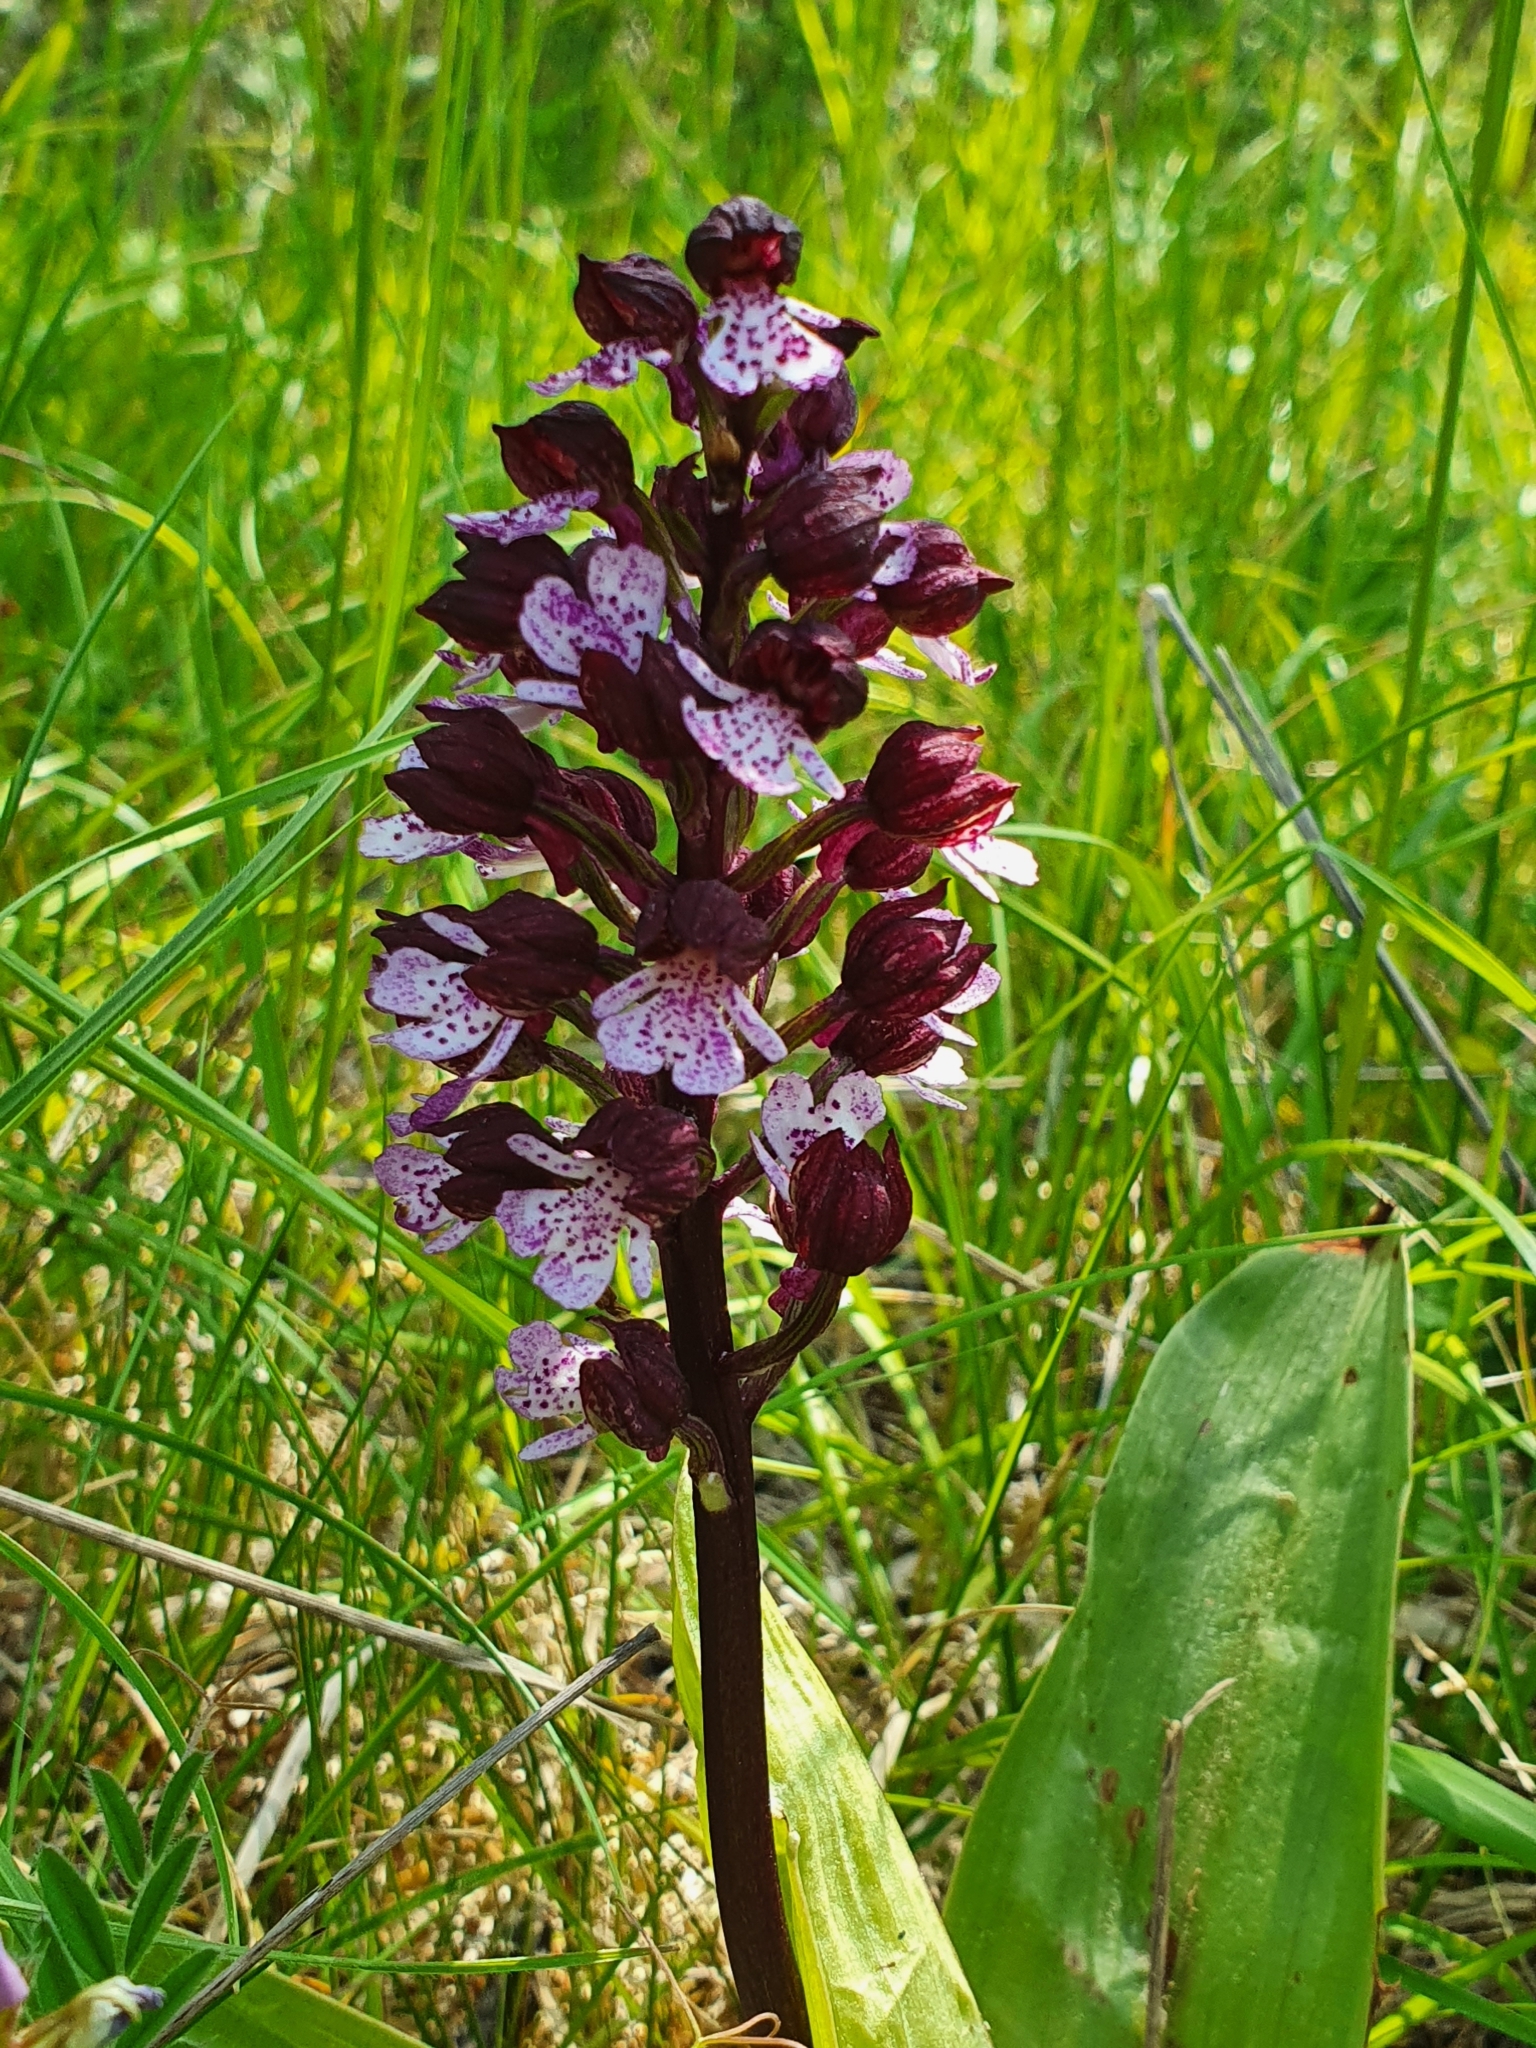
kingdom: Plantae
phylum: Tracheophyta
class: Liliopsida
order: Asparagales
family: Orchidaceae
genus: Orchis
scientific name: Orchis purpurea
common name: Lady orchid
